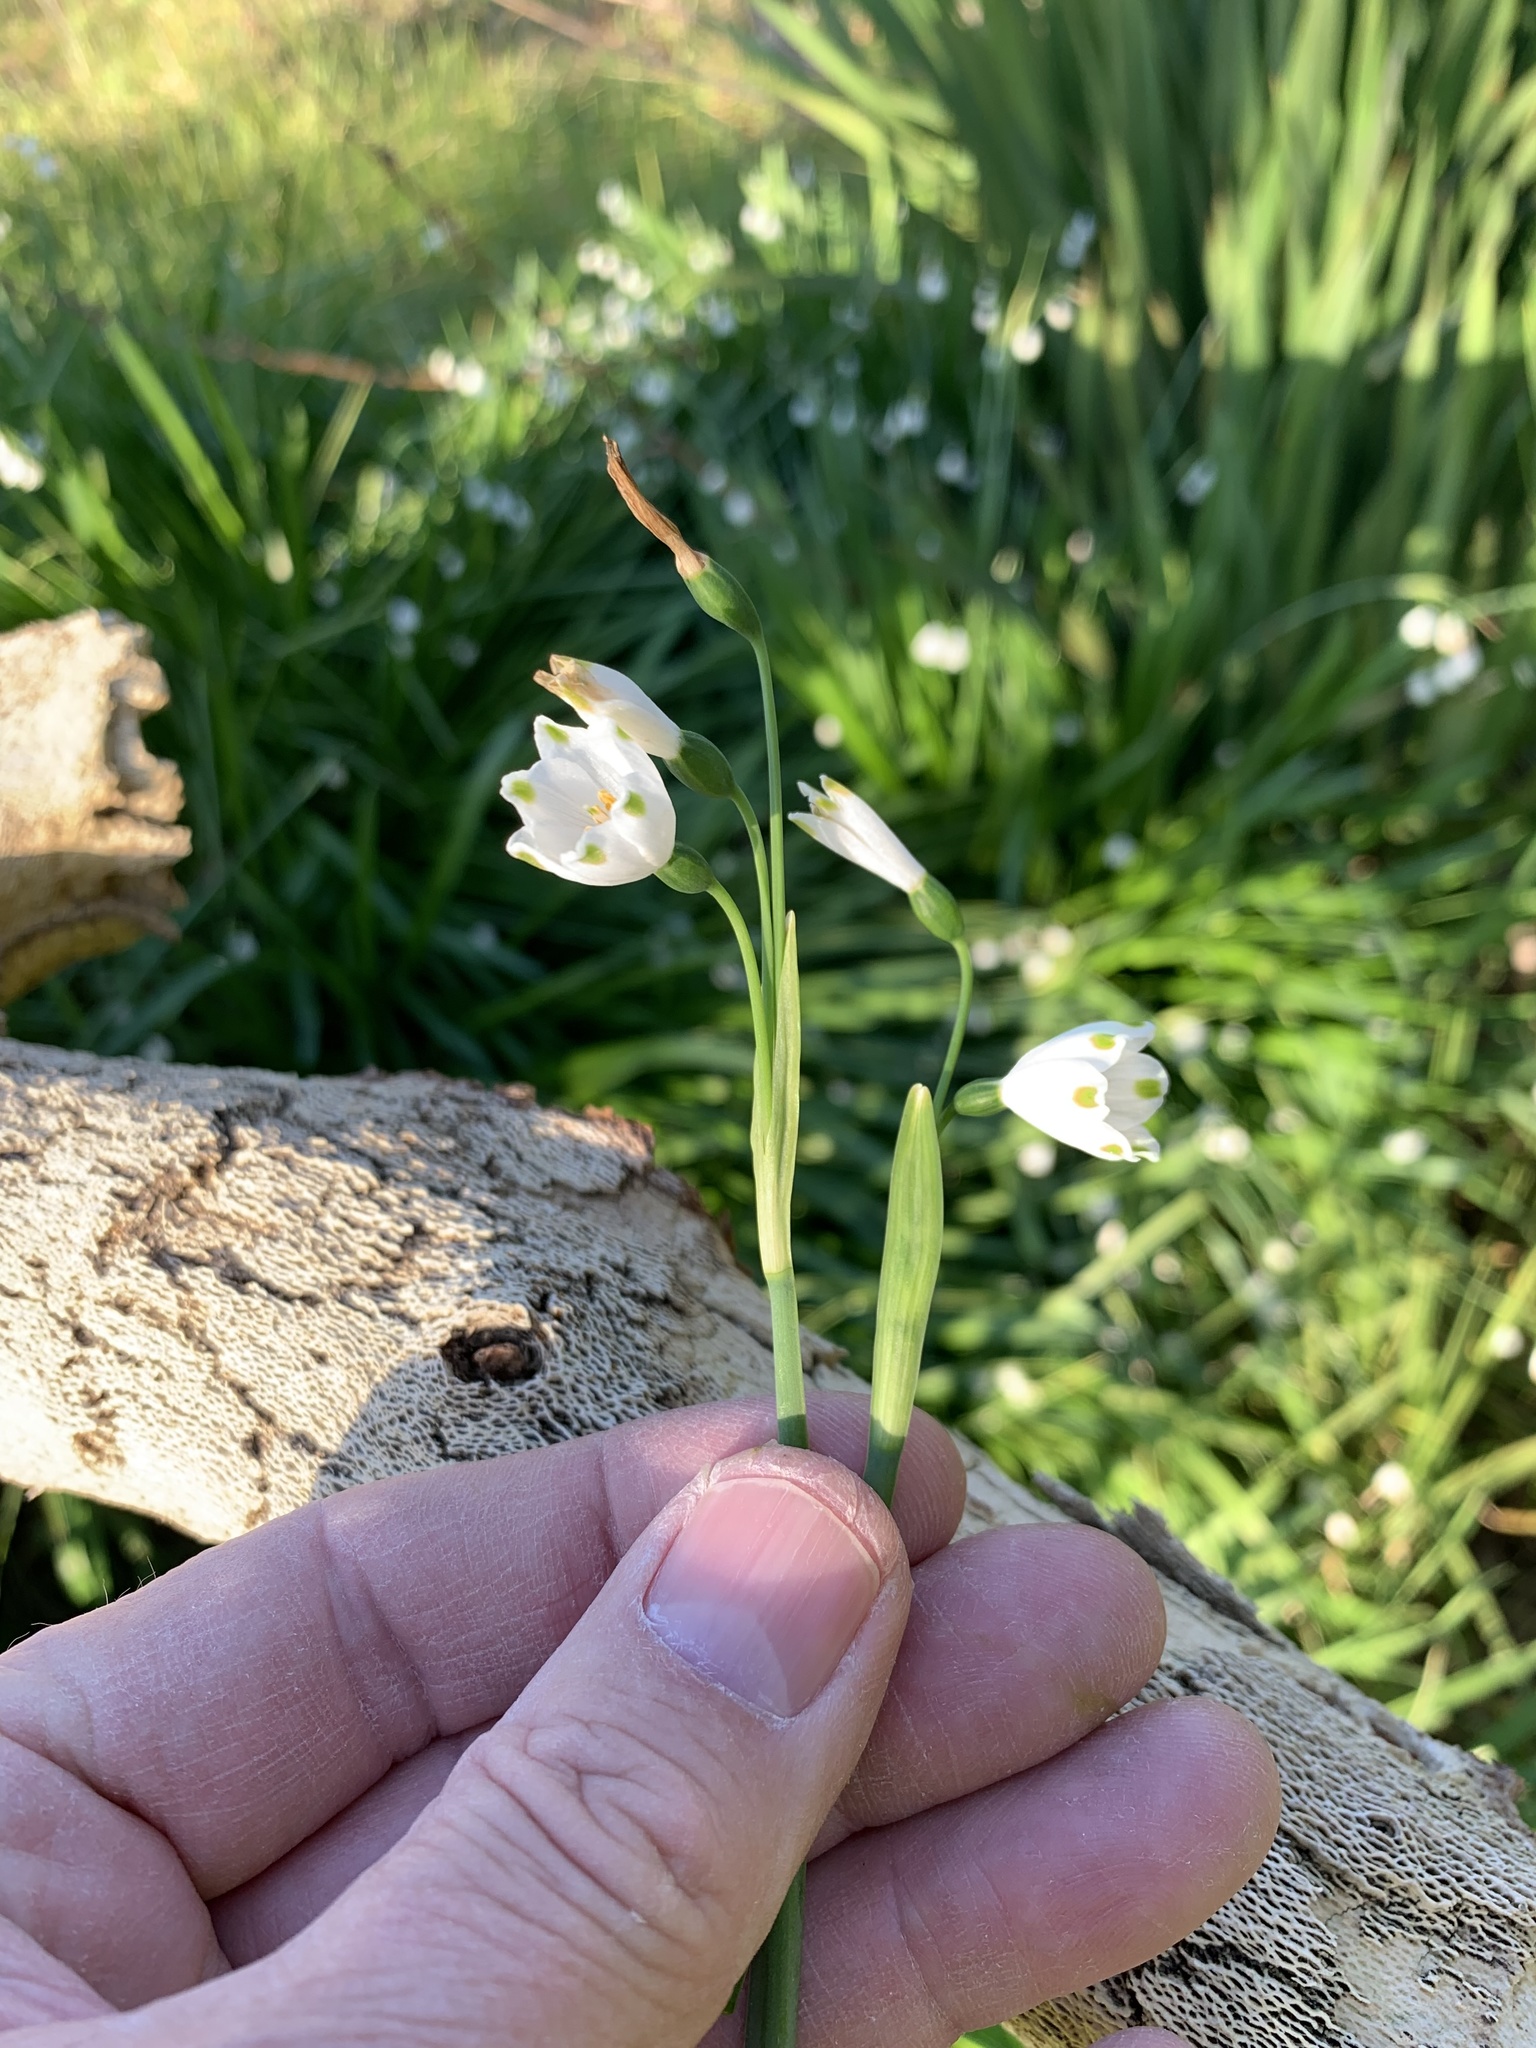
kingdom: Plantae
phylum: Tracheophyta
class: Liliopsida
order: Asparagales
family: Amaryllidaceae
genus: Leucojum
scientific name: Leucojum aestivum
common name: Summer snowflake
